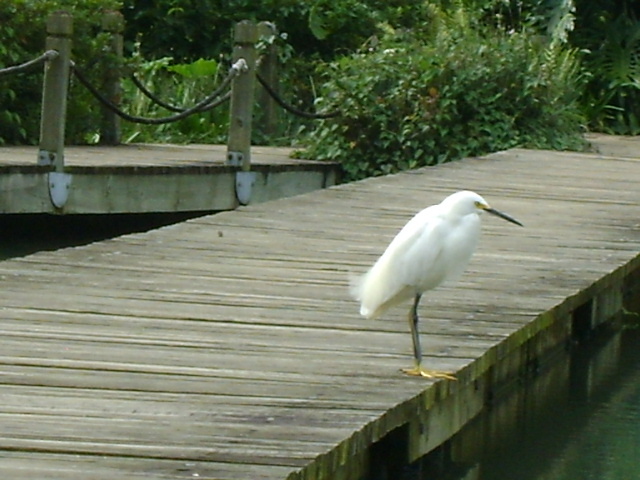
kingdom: Animalia
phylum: Chordata
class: Aves
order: Pelecaniformes
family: Ardeidae
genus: Egretta
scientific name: Egretta thula
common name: Snowy egret
